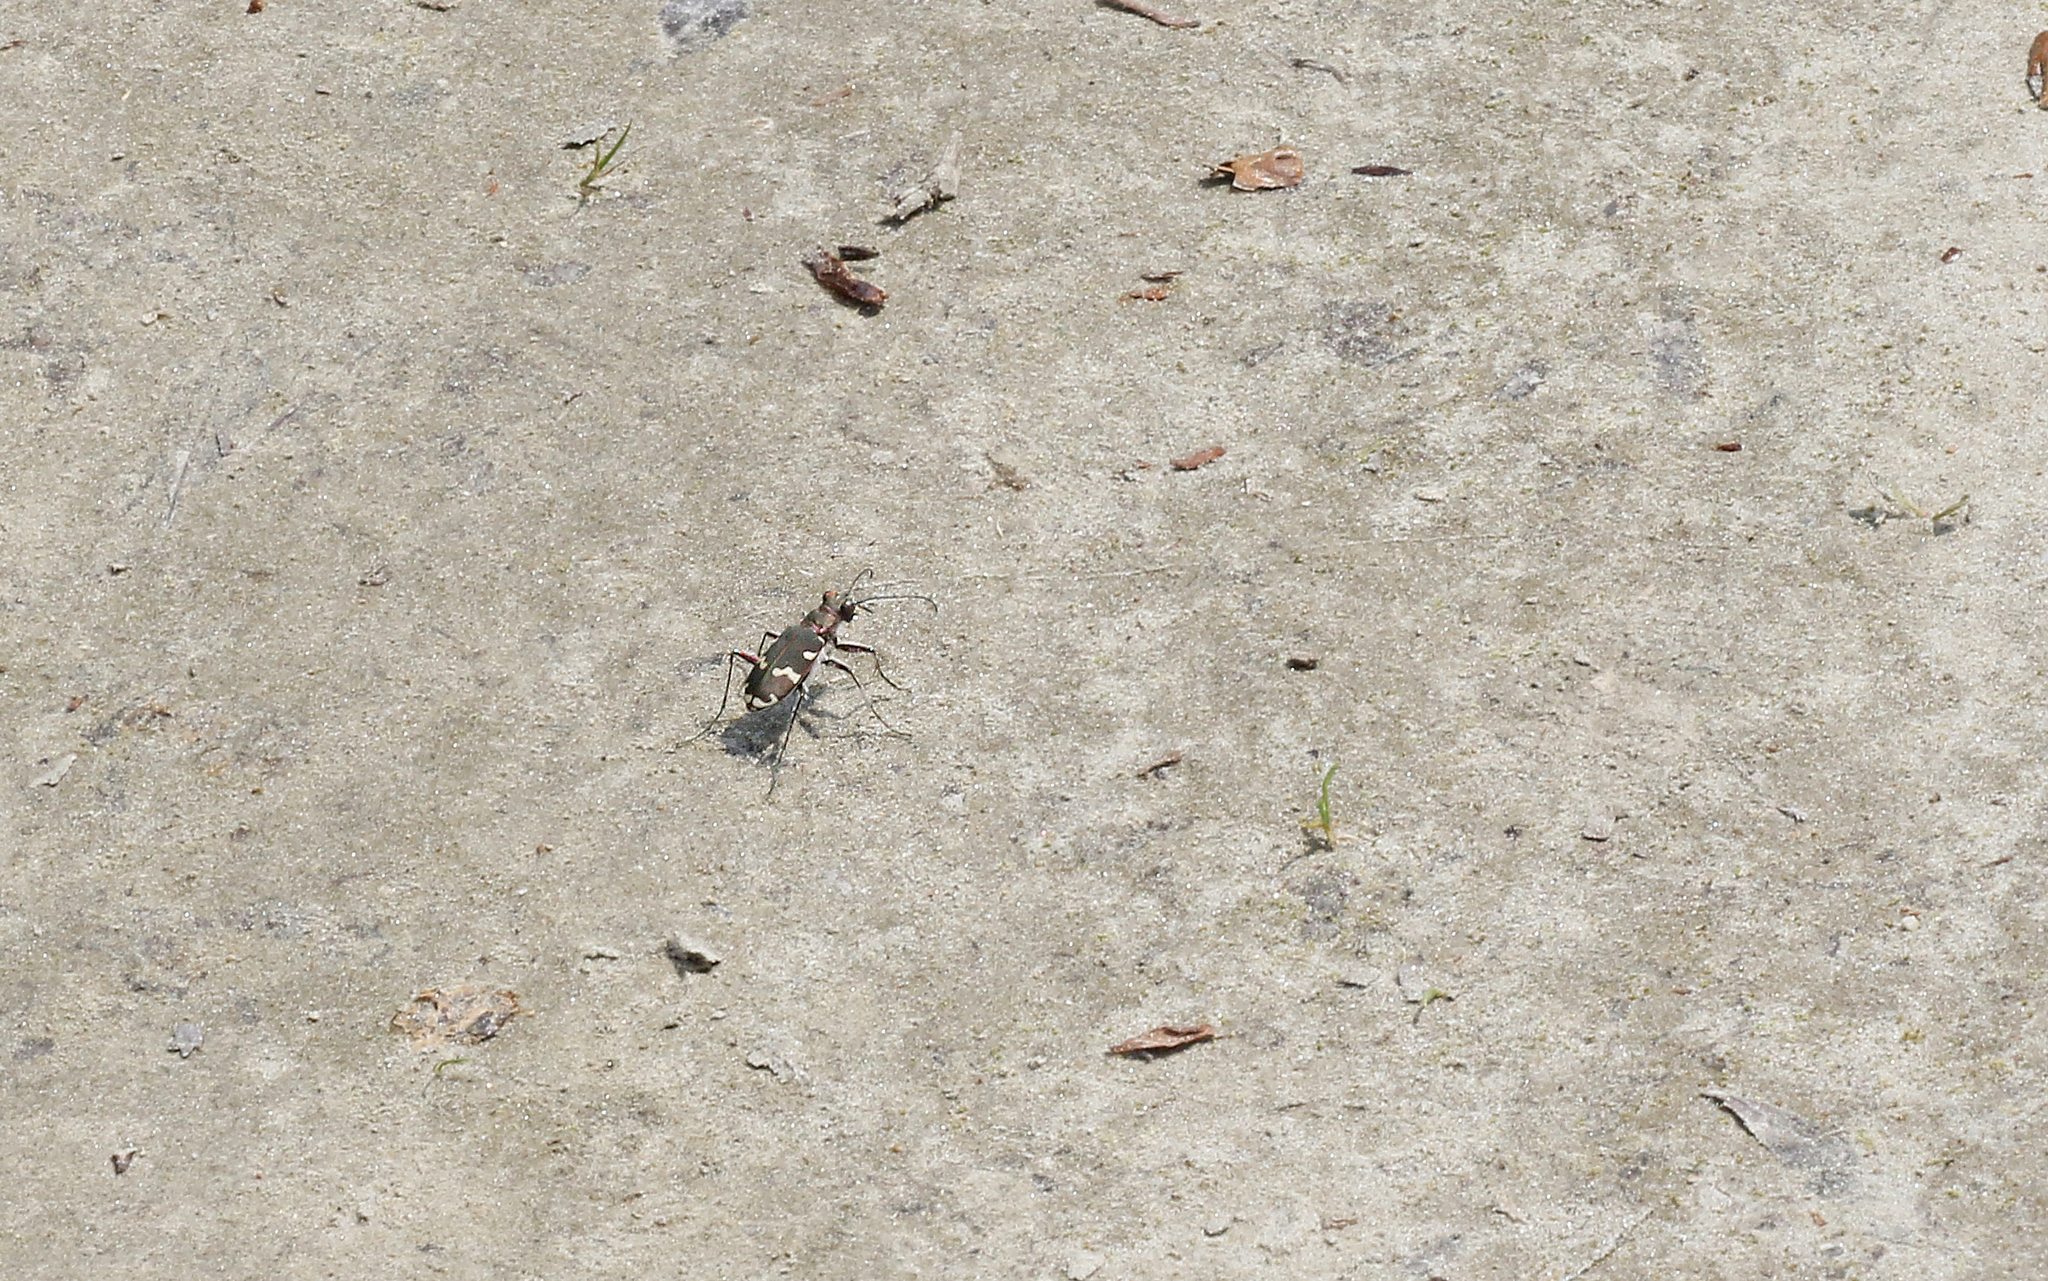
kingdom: Animalia
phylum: Arthropoda
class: Insecta
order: Coleoptera
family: Carabidae
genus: Cicindela
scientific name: Cicindela hybrida
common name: Northern dune tiger beetle
